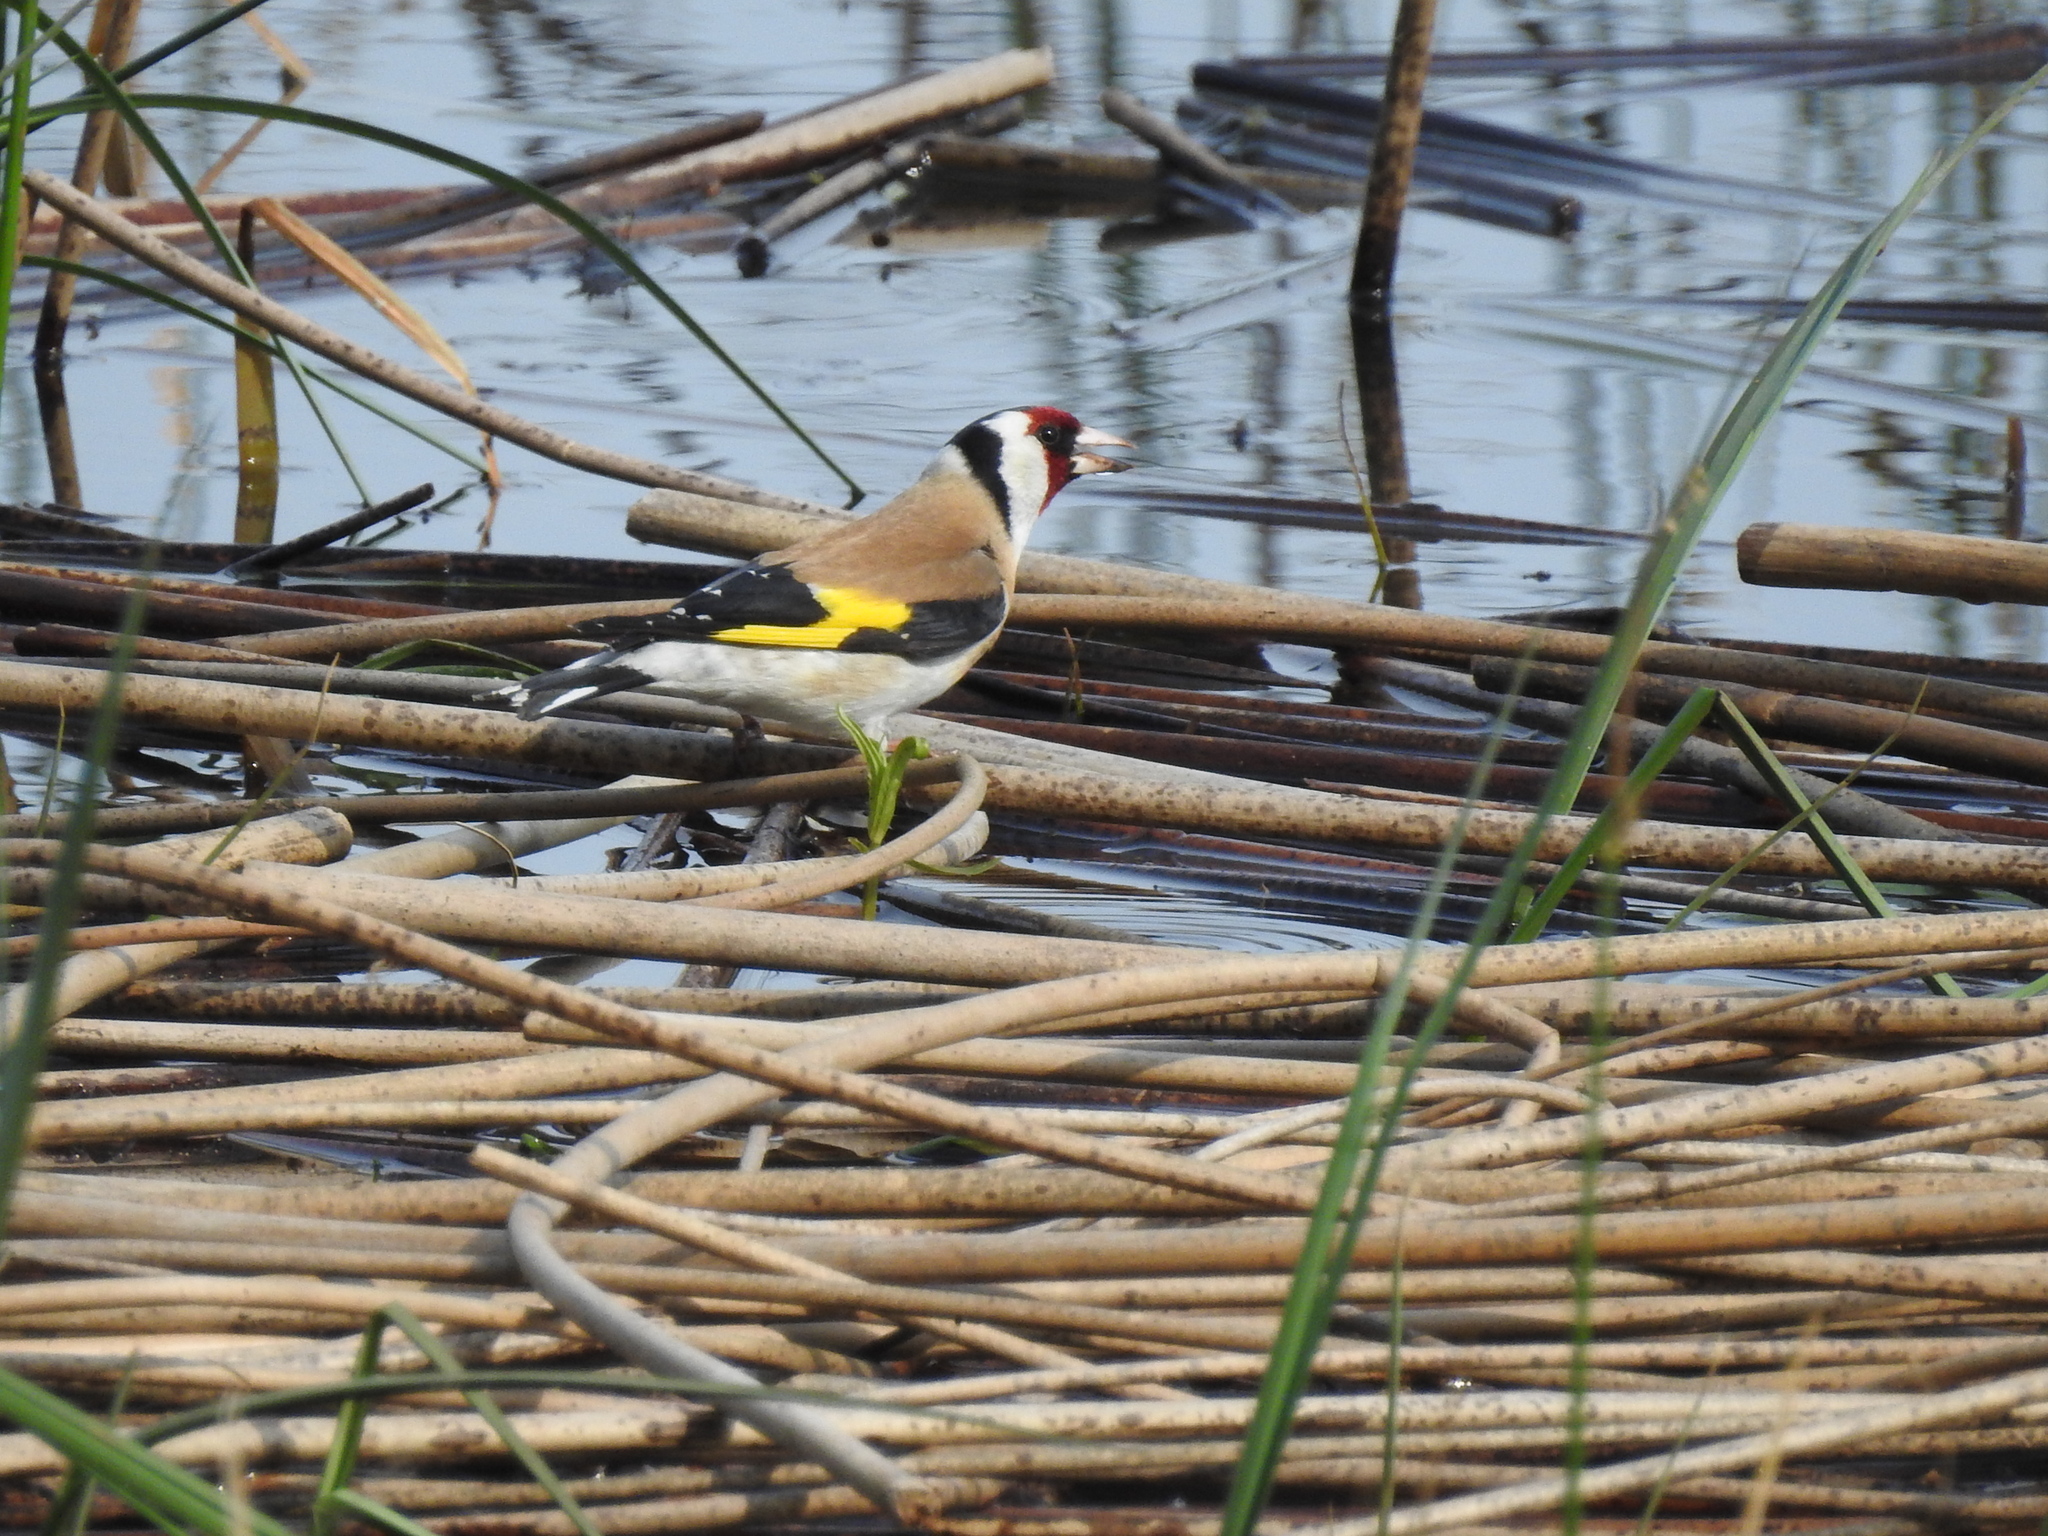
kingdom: Animalia
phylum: Chordata
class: Aves
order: Passeriformes
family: Fringillidae
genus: Carduelis
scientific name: Carduelis carduelis
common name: European goldfinch
